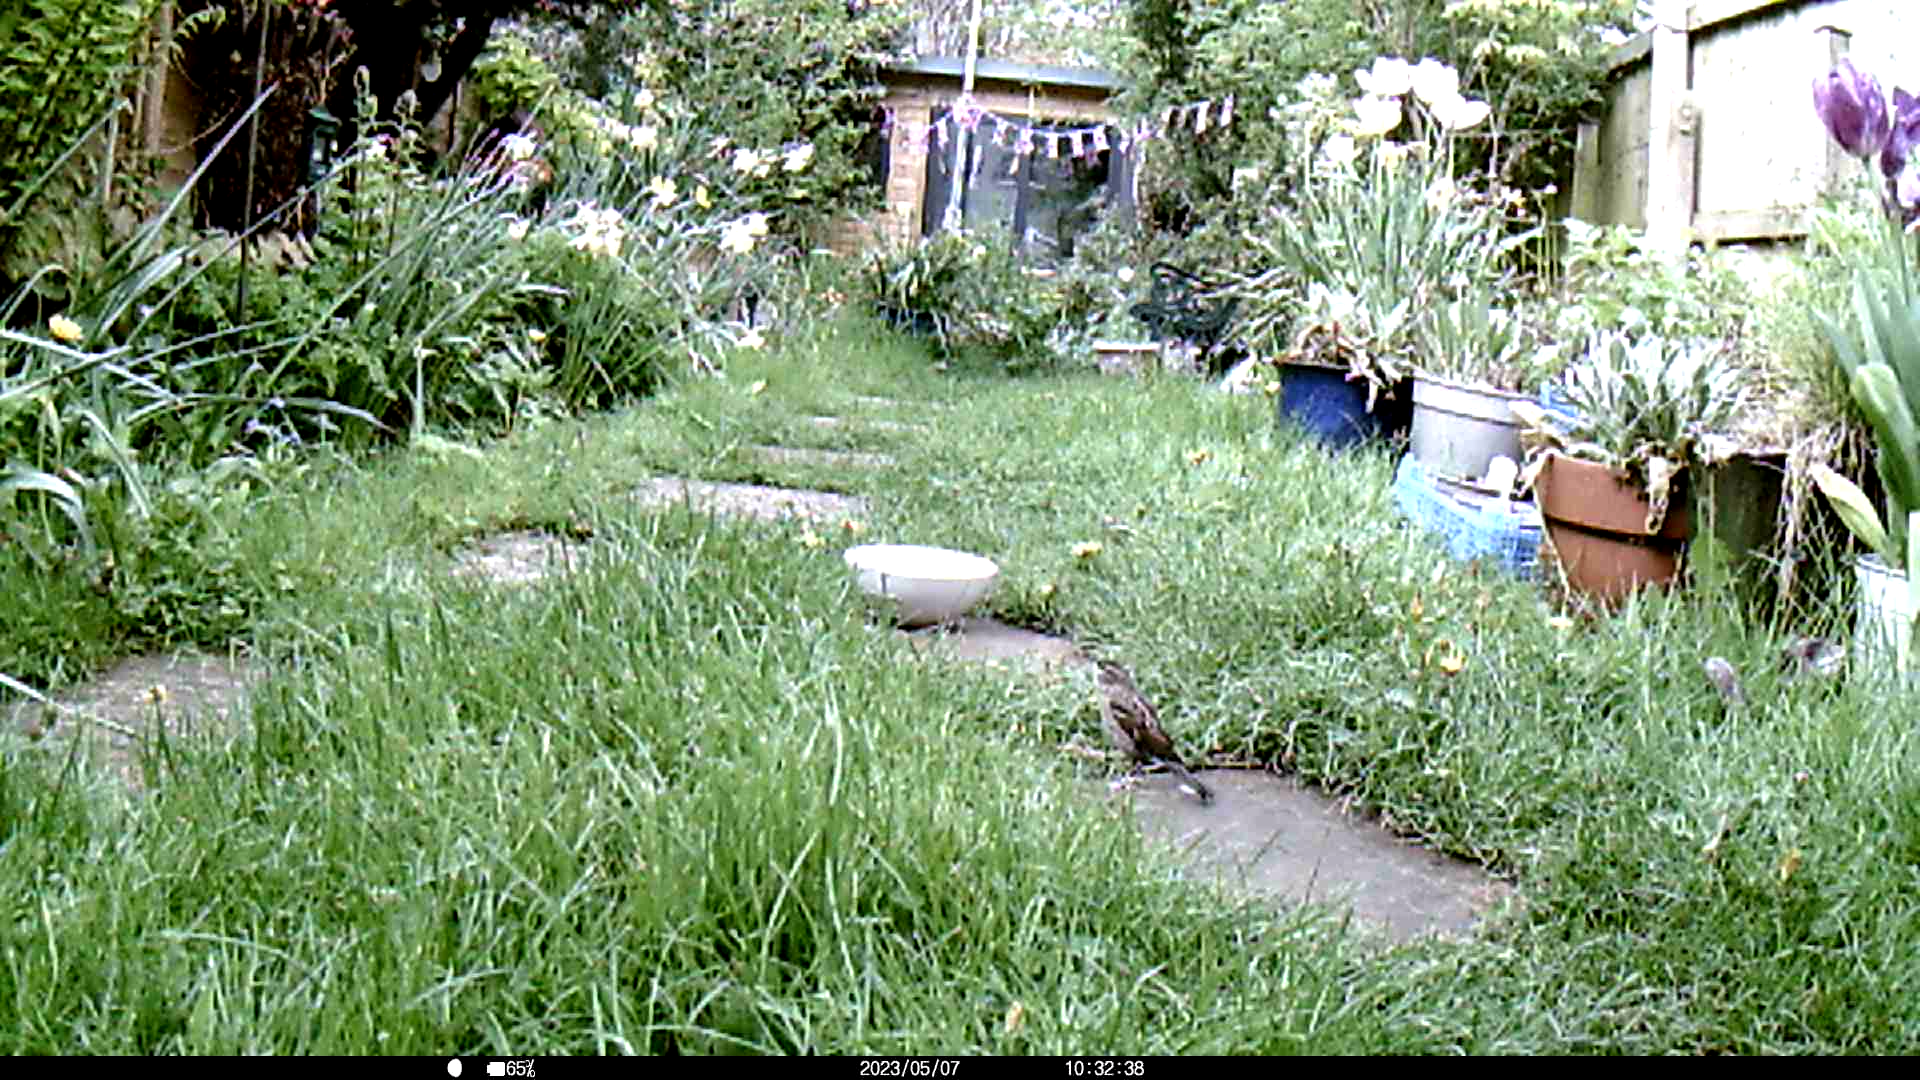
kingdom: Animalia
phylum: Chordata
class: Aves
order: Passeriformes
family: Passeridae
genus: Passer
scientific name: Passer domesticus
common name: House sparrow
